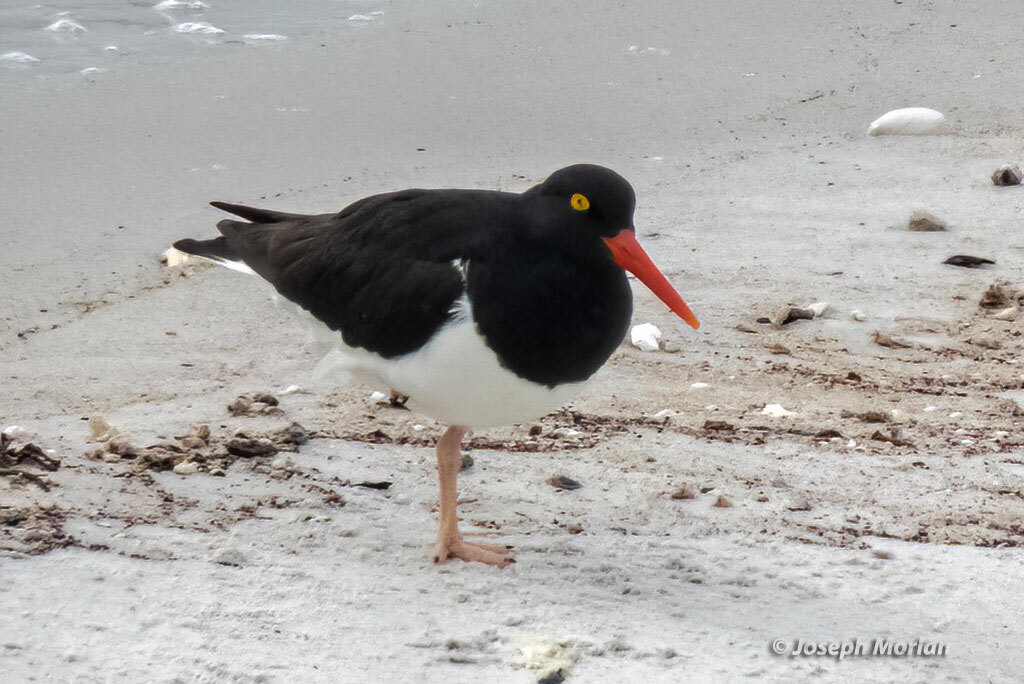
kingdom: Animalia
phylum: Chordata
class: Aves
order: Charadriiformes
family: Haematopodidae
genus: Haematopus
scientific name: Haematopus leucopodus
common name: Magellanic oystercatcher
